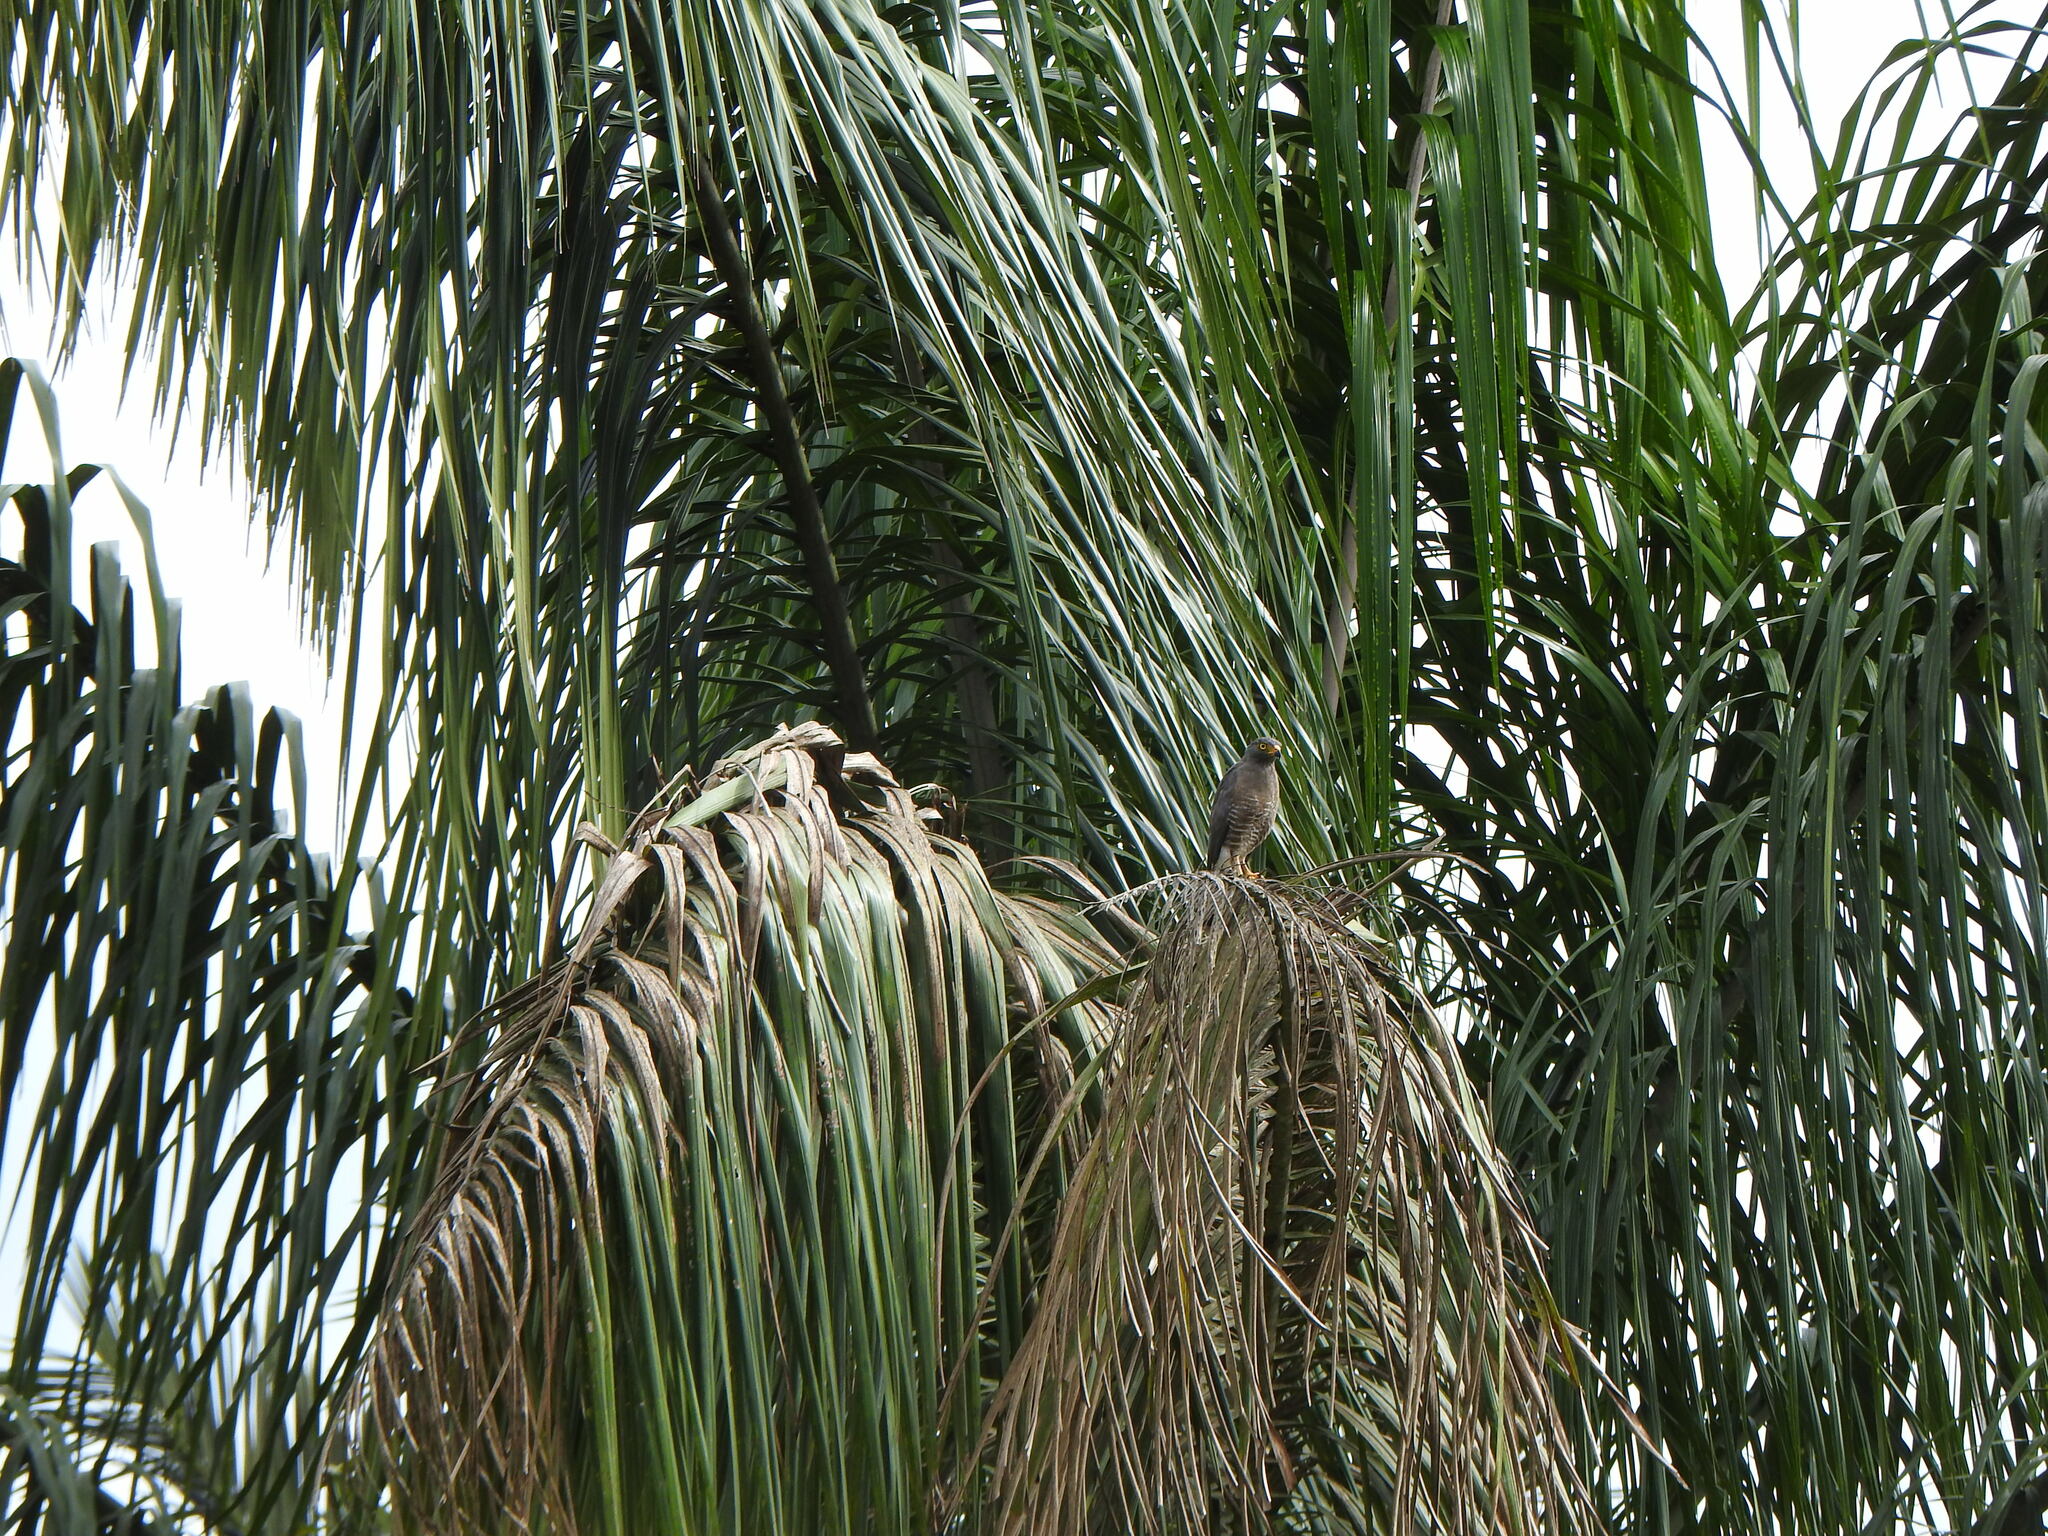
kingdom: Animalia
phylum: Chordata
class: Aves
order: Accipitriformes
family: Accipitridae
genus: Rupornis
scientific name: Rupornis magnirostris
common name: Roadside hawk
